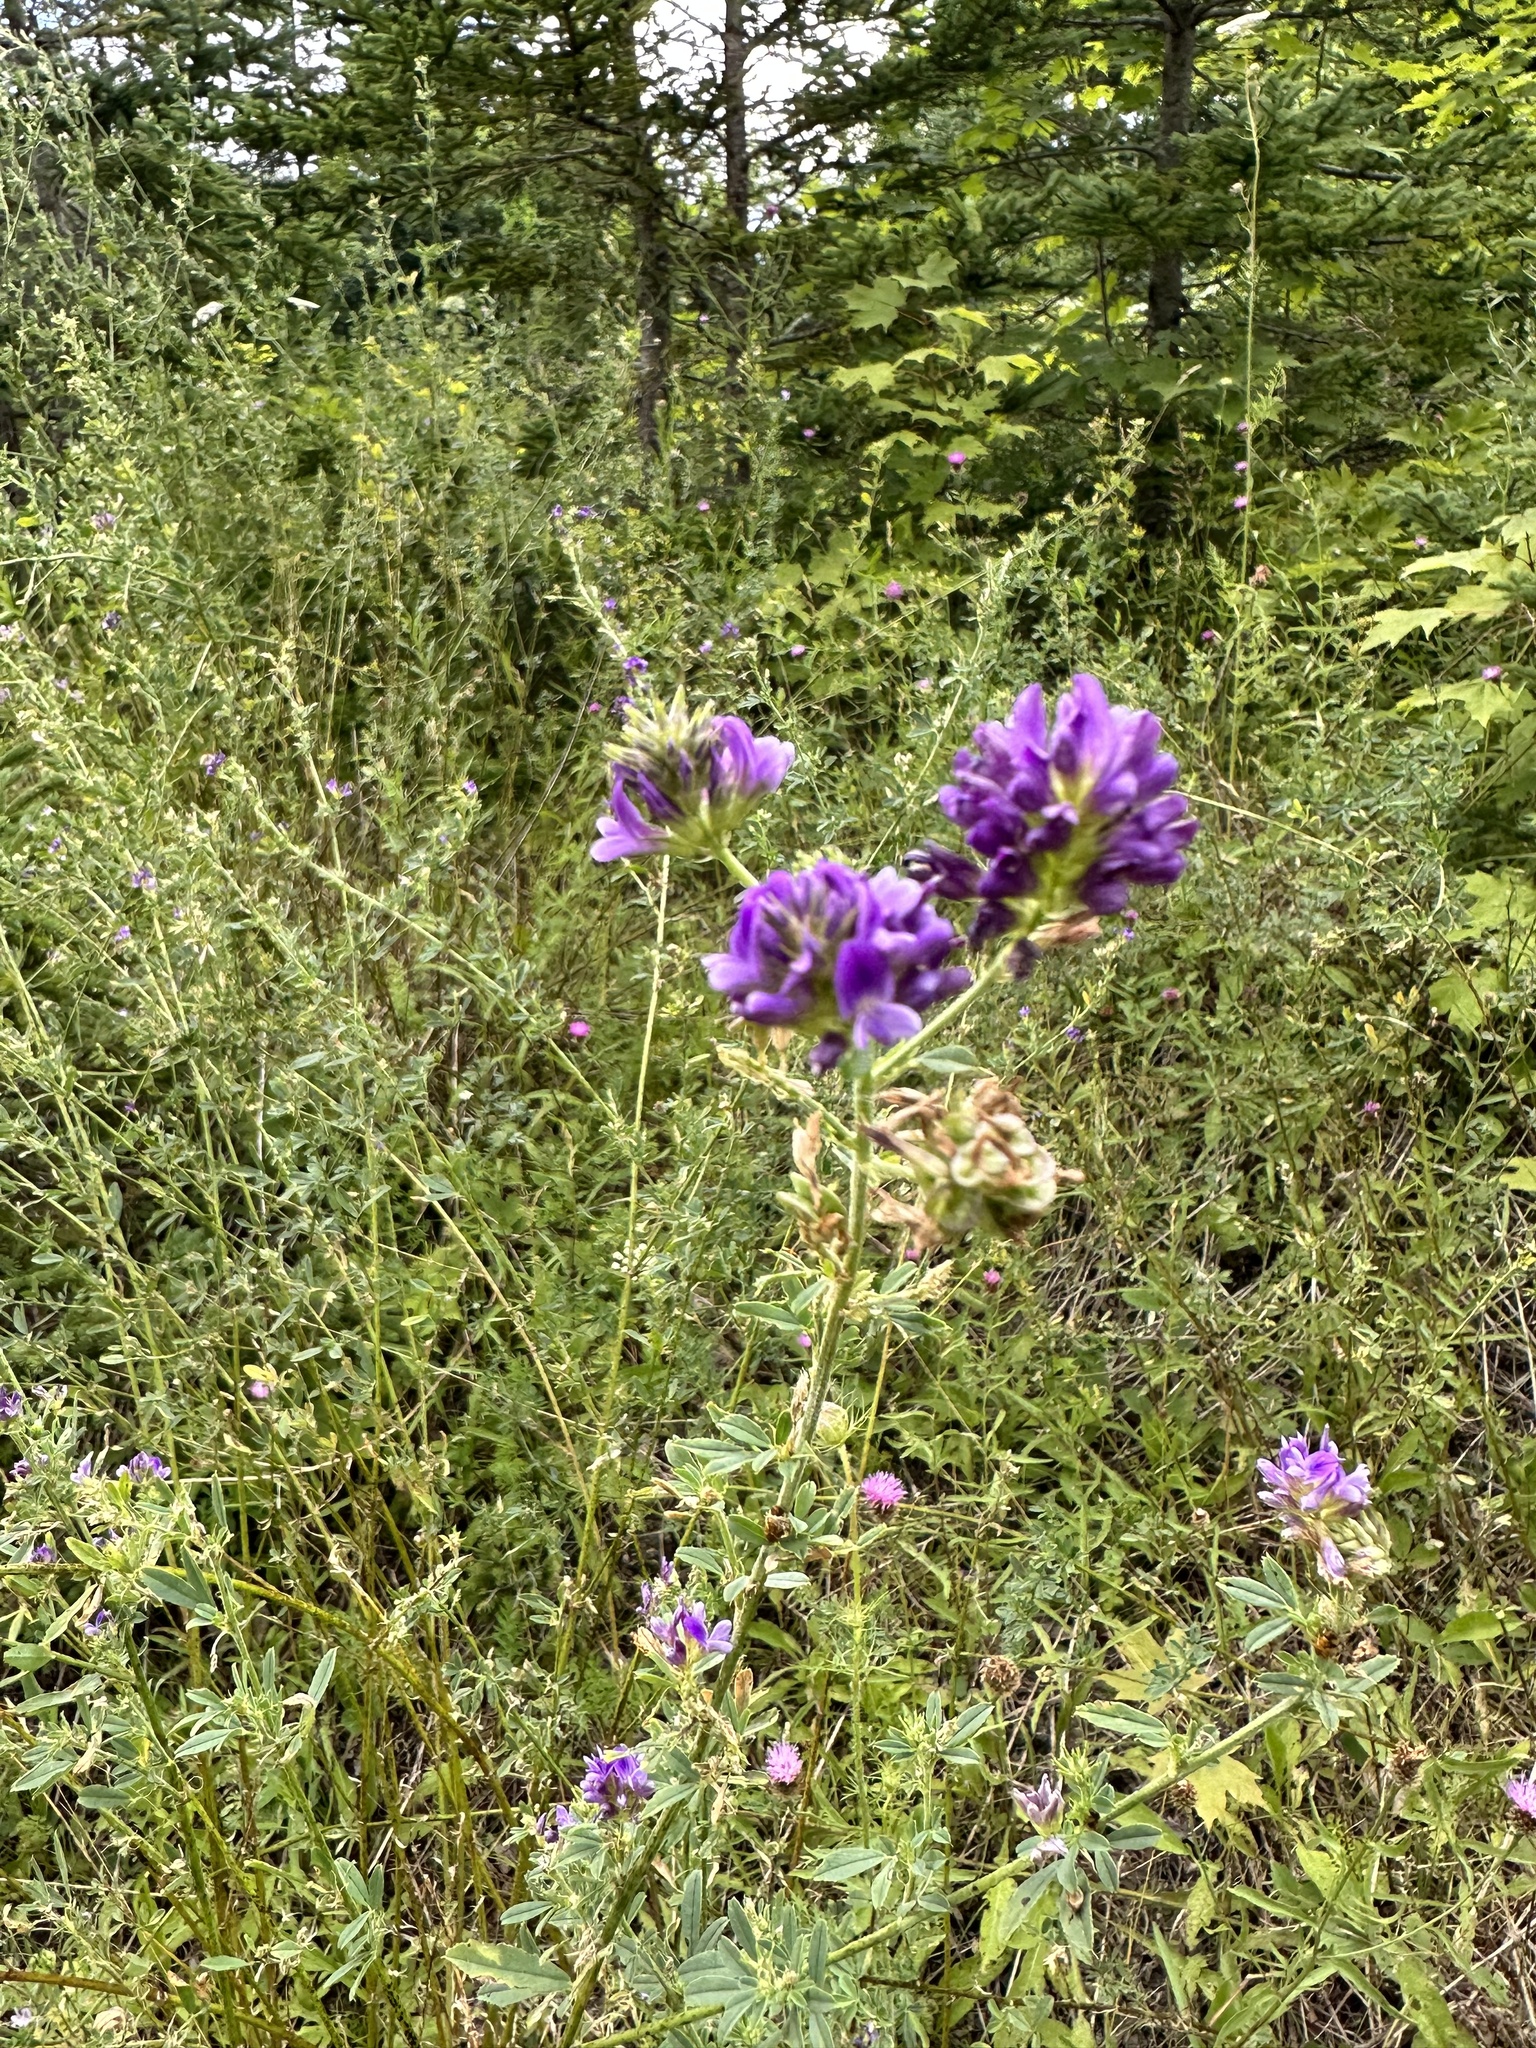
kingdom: Plantae
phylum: Tracheophyta
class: Magnoliopsida
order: Fabales
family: Fabaceae
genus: Medicago
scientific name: Medicago sativa
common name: Alfalfa
